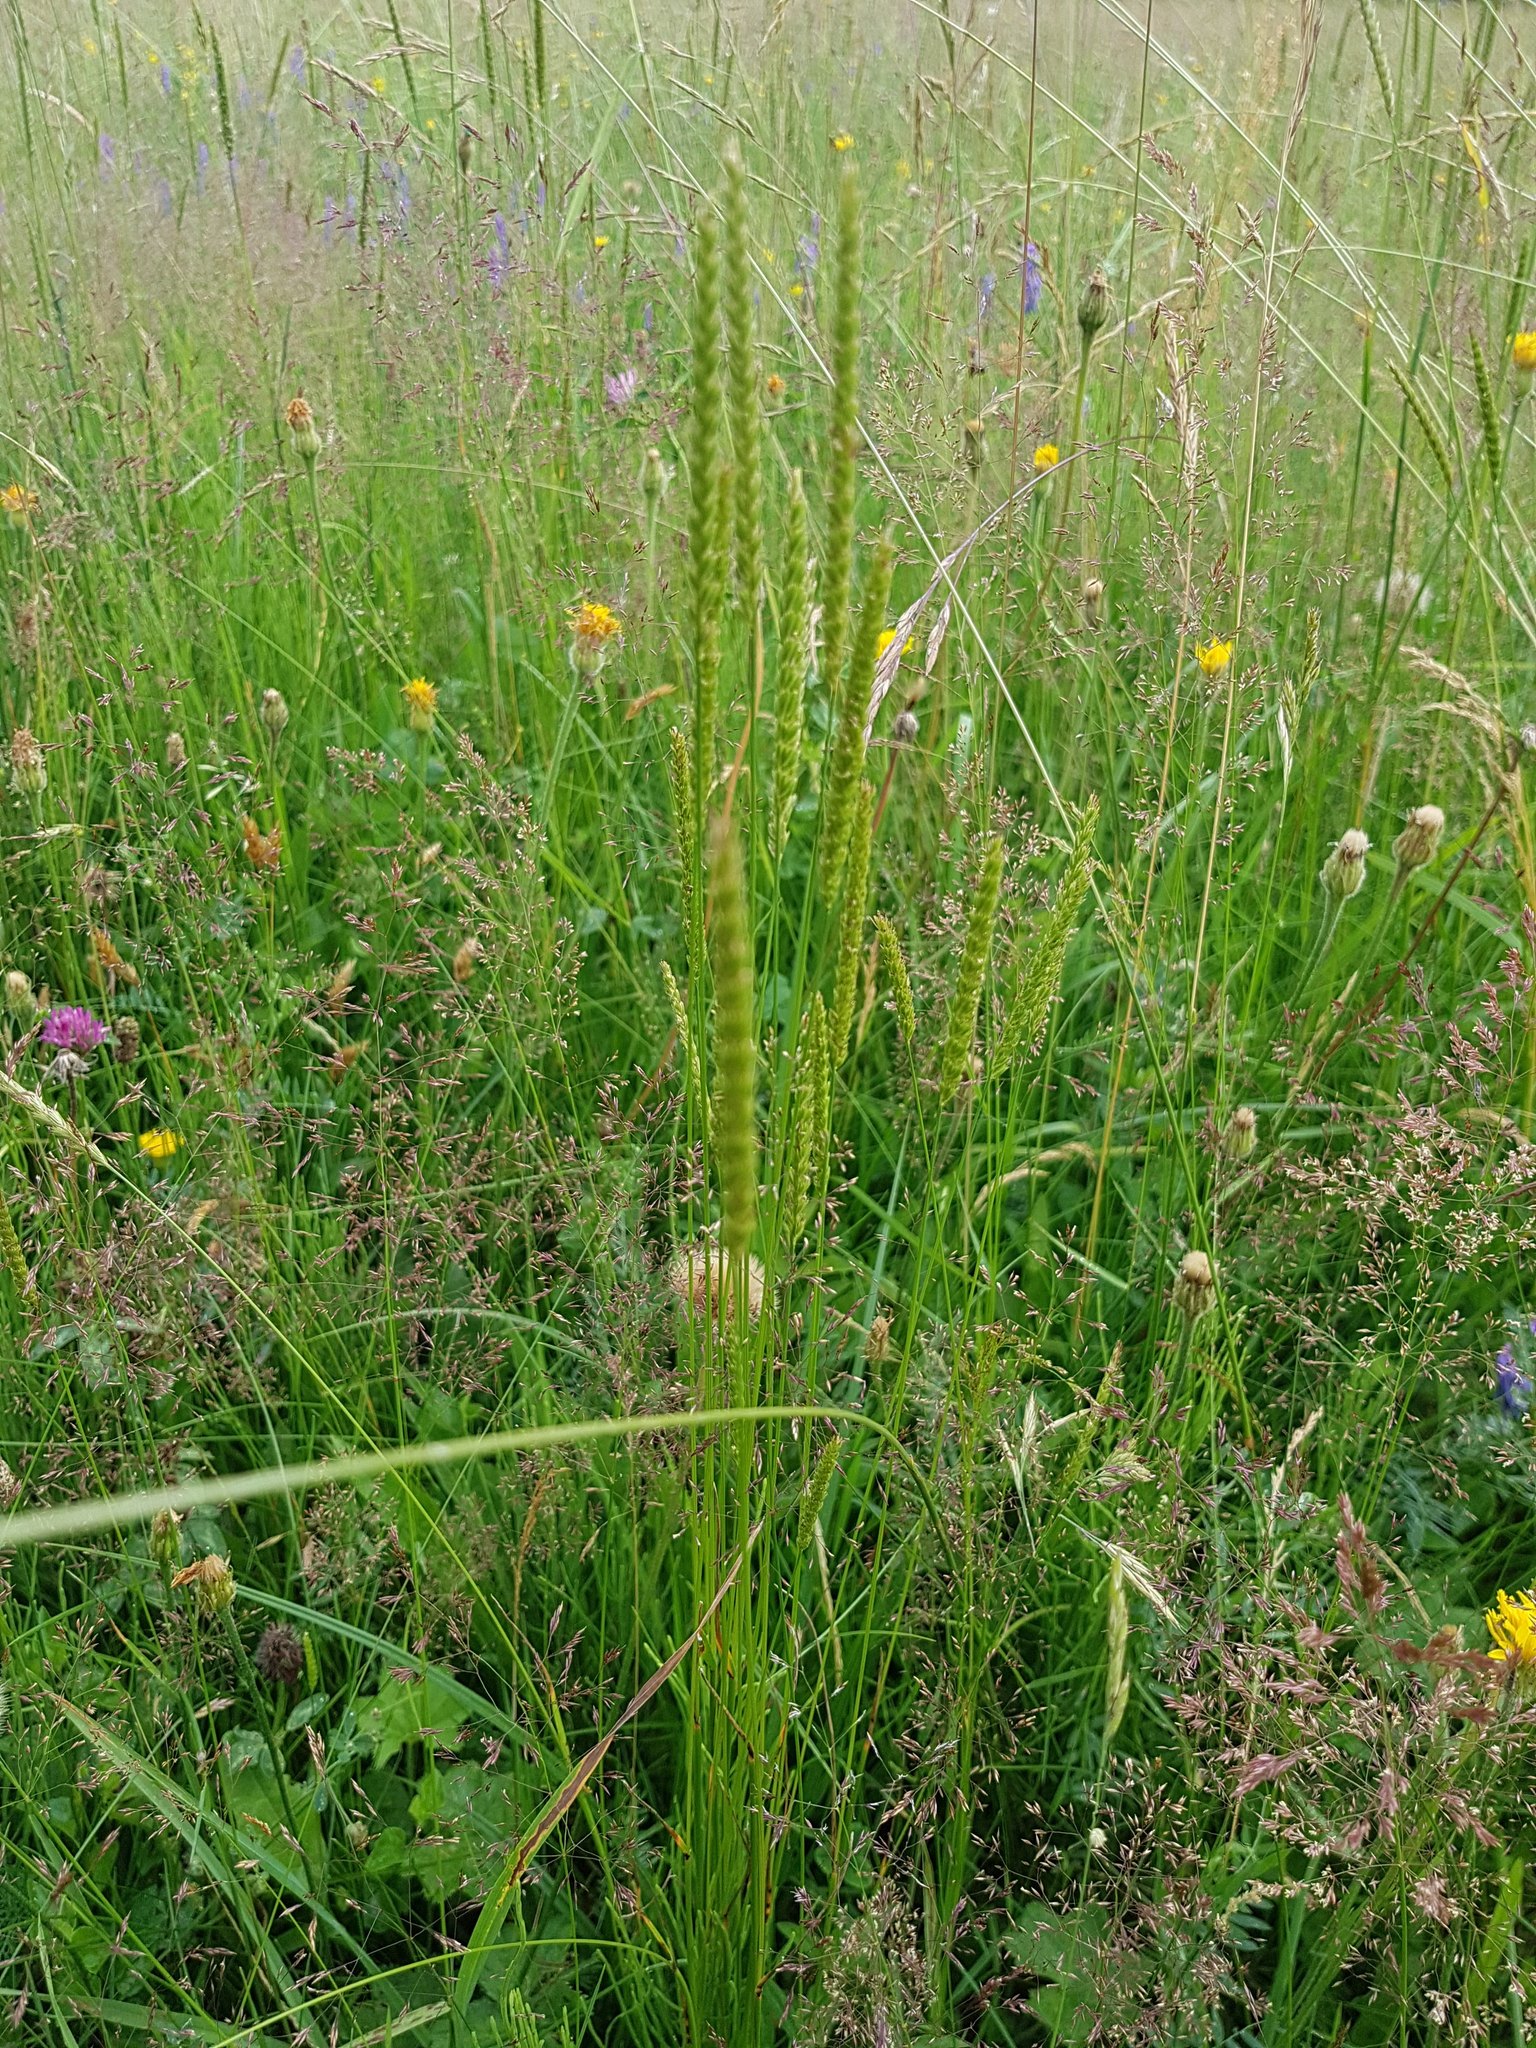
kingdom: Plantae
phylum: Tracheophyta
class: Liliopsida
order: Poales
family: Poaceae
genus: Cynosurus
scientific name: Cynosurus cristatus
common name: Crested dog's-tail
